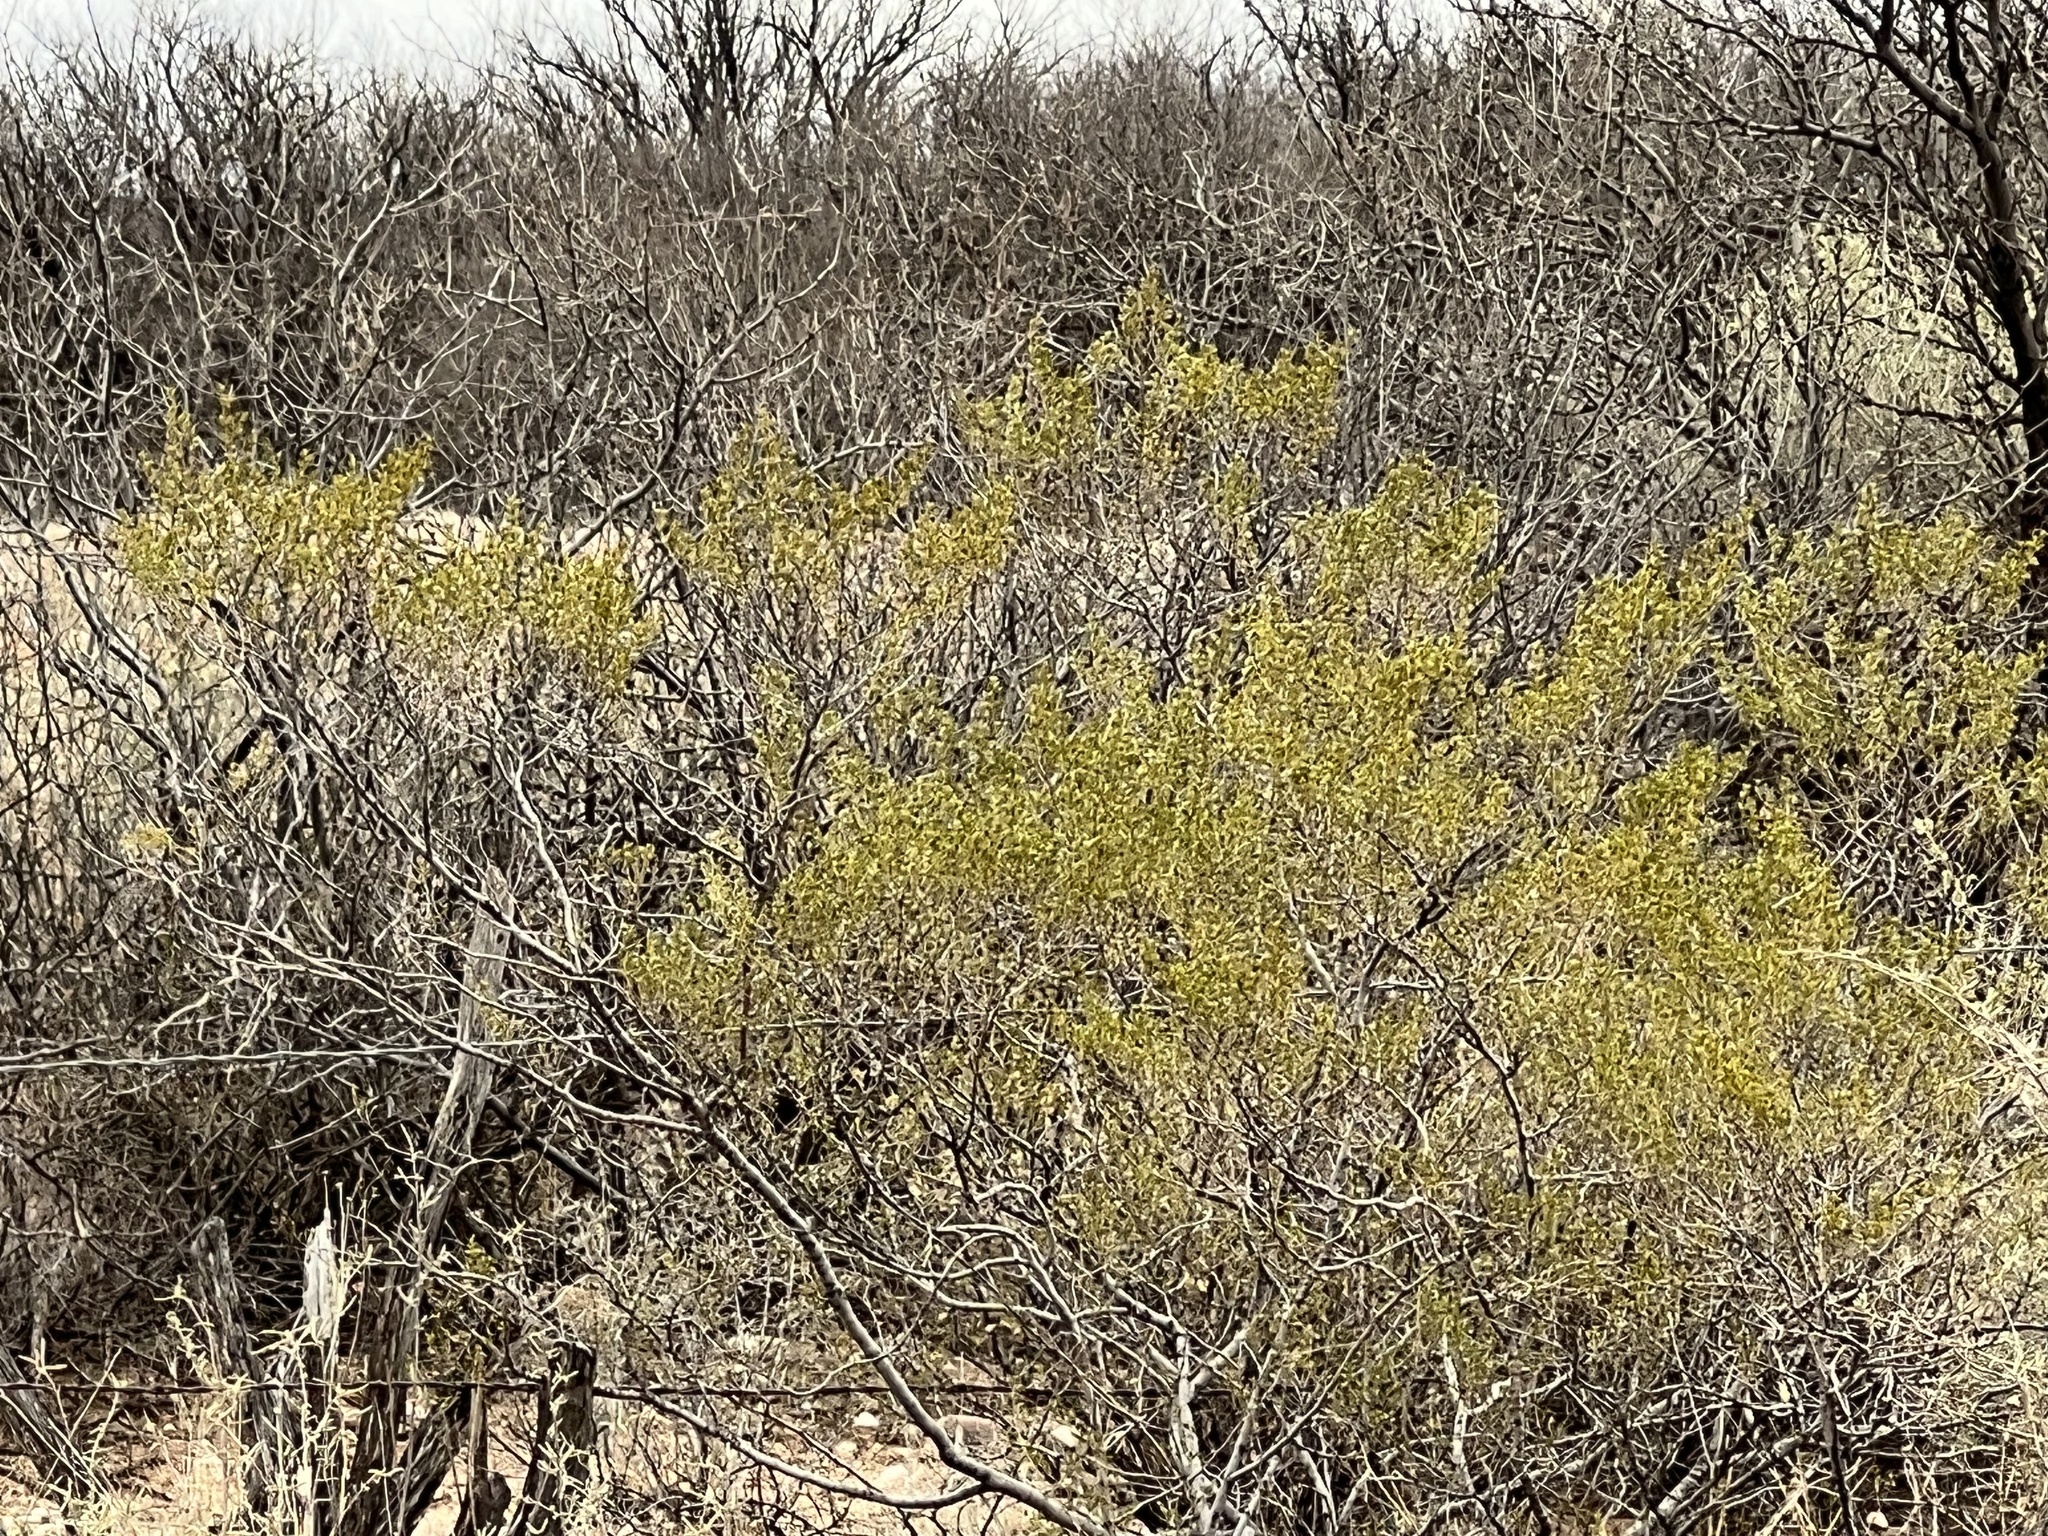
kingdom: Plantae
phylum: Tracheophyta
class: Magnoliopsida
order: Zygophyllales
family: Zygophyllaceae
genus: Larrea
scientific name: Larrea tridentata
